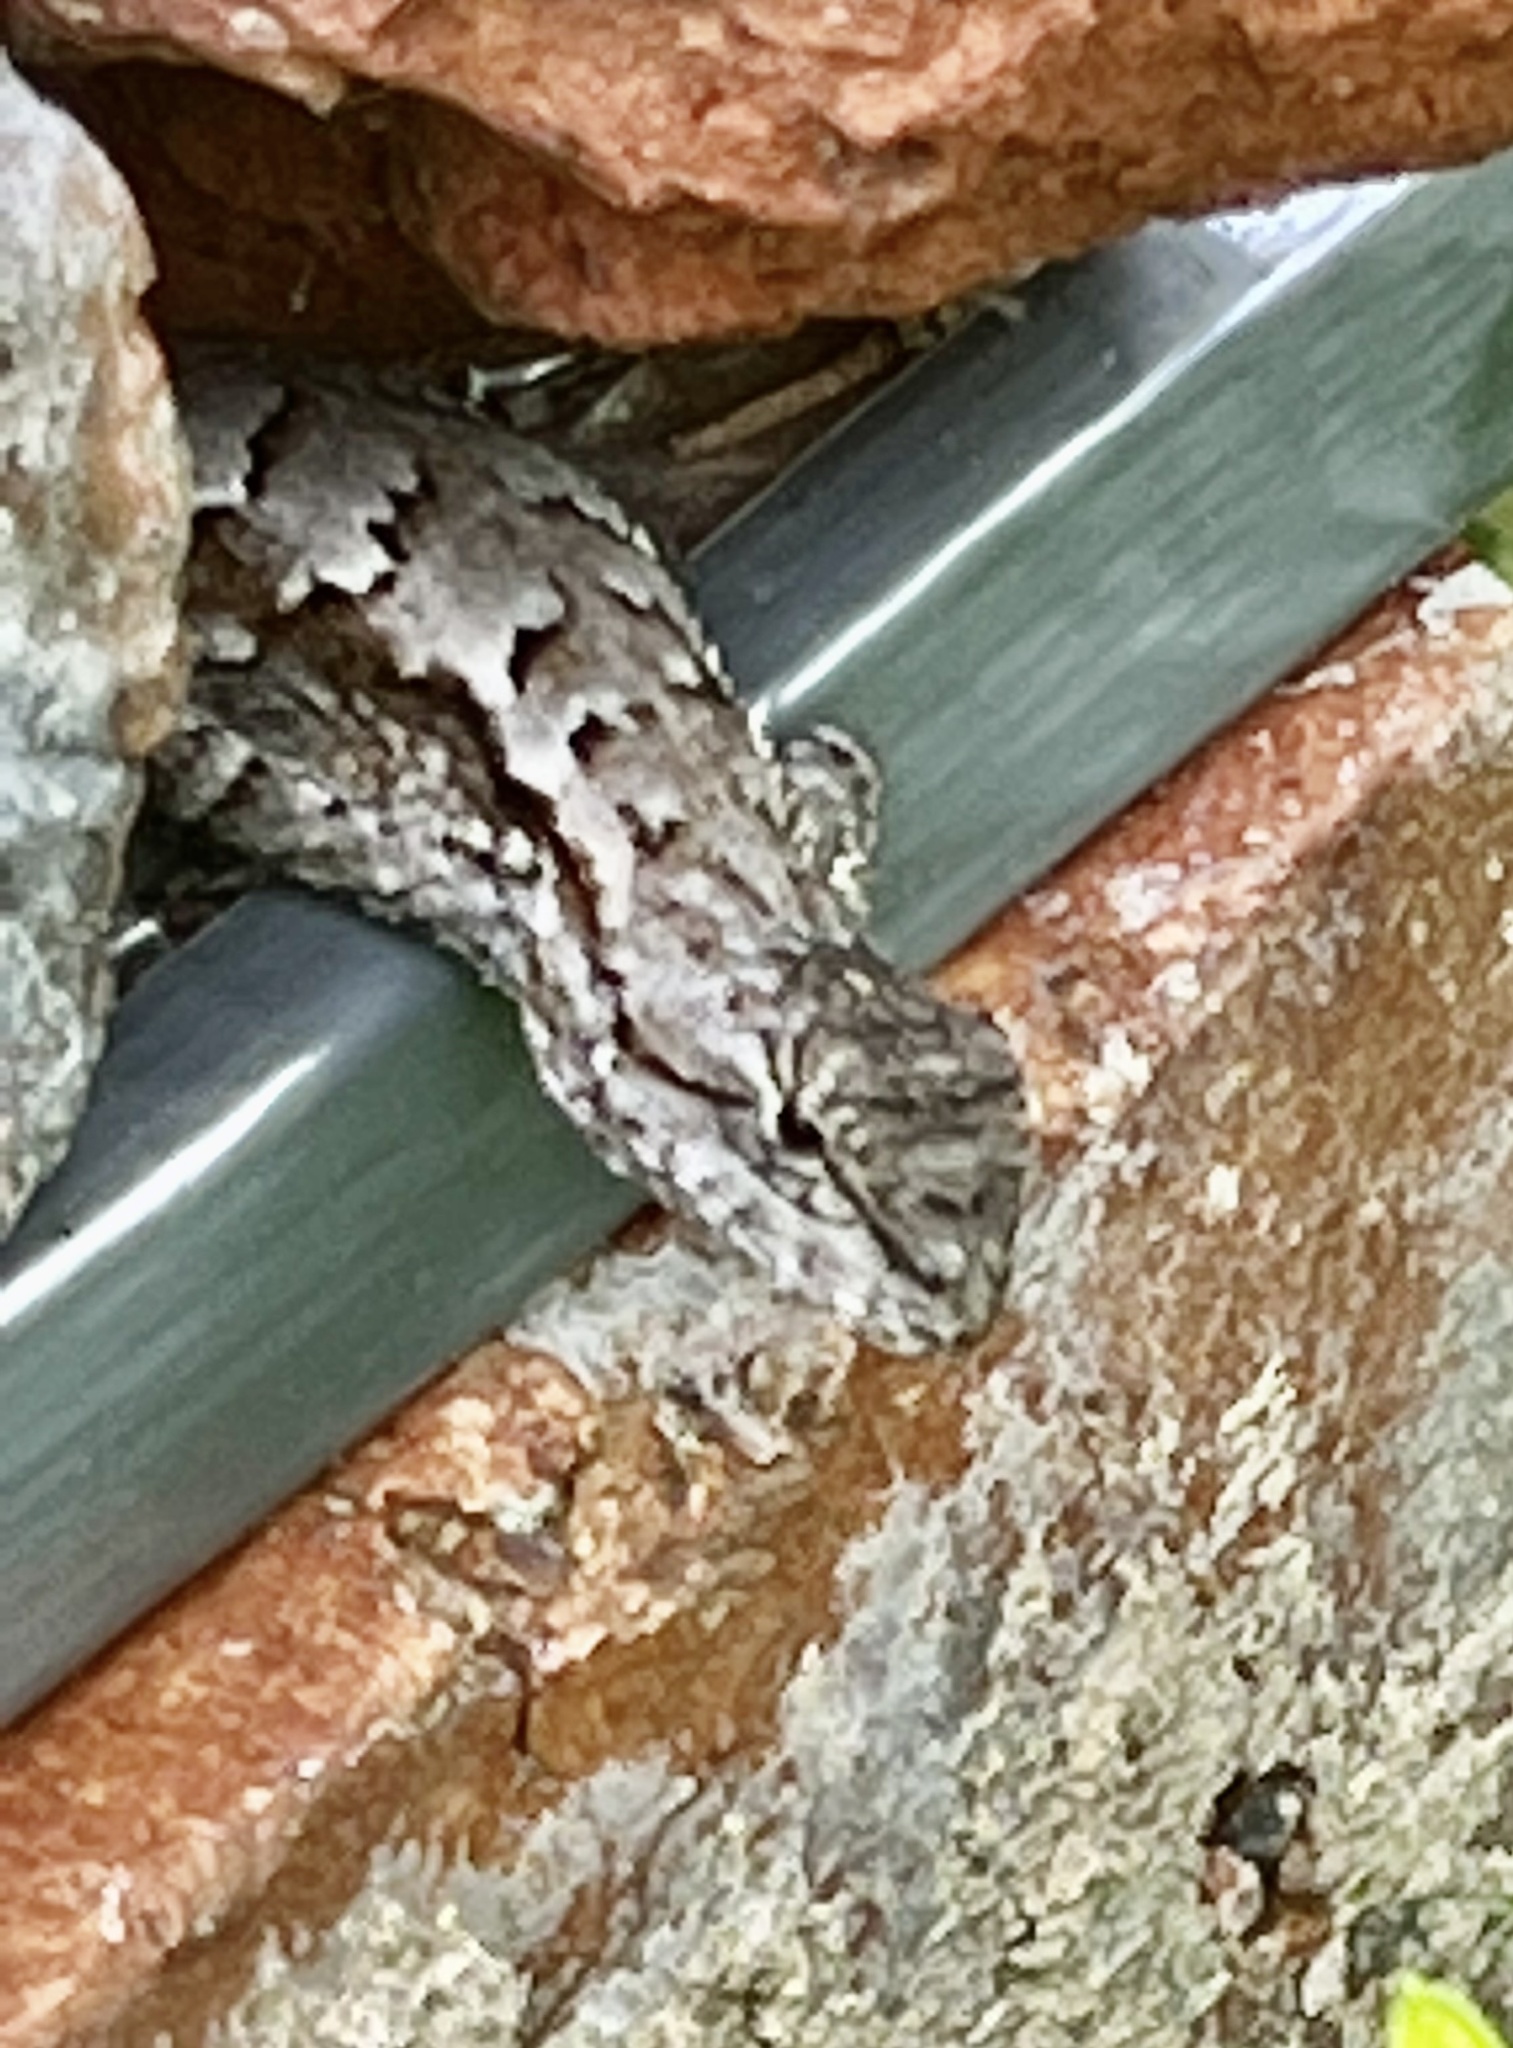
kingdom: Animalia
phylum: Chordata
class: Squamata
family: Phrynosomatidae
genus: Sceloporus
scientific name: Sceloporus undulatus
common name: Eastern fence lizard
